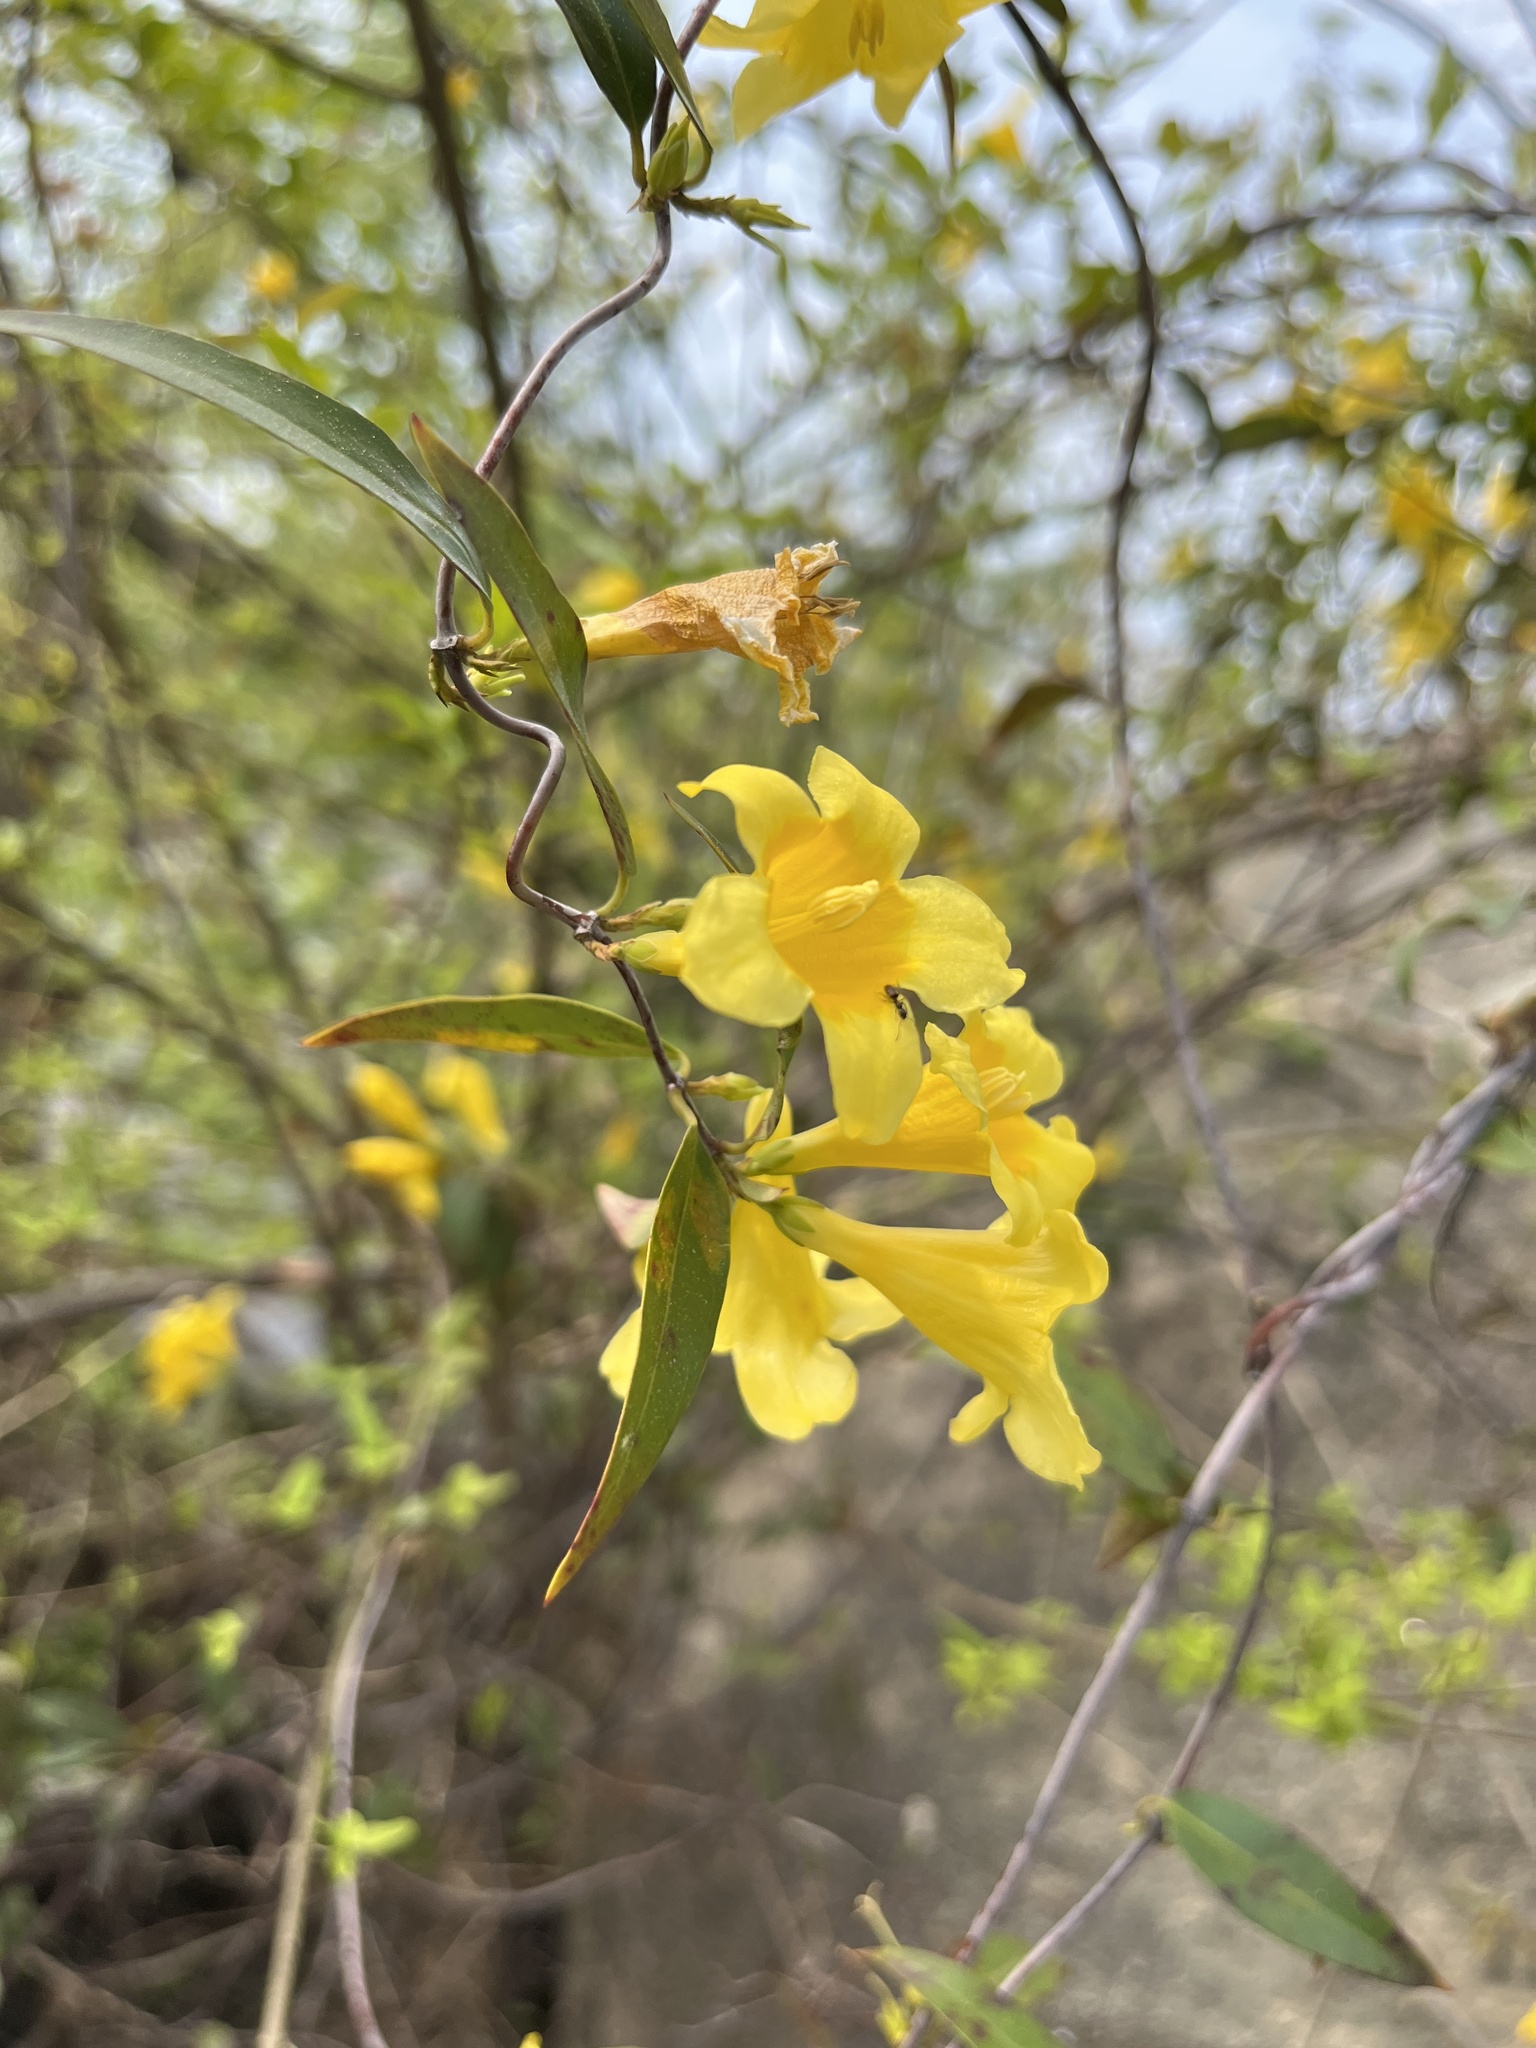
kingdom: Plantae
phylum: Tracheophyta
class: Magnoliopsida
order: Gentianales
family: Gelsemiaceae
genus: Gelsemium
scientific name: Gelsemium sempervirens
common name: Carolina-jasmine
